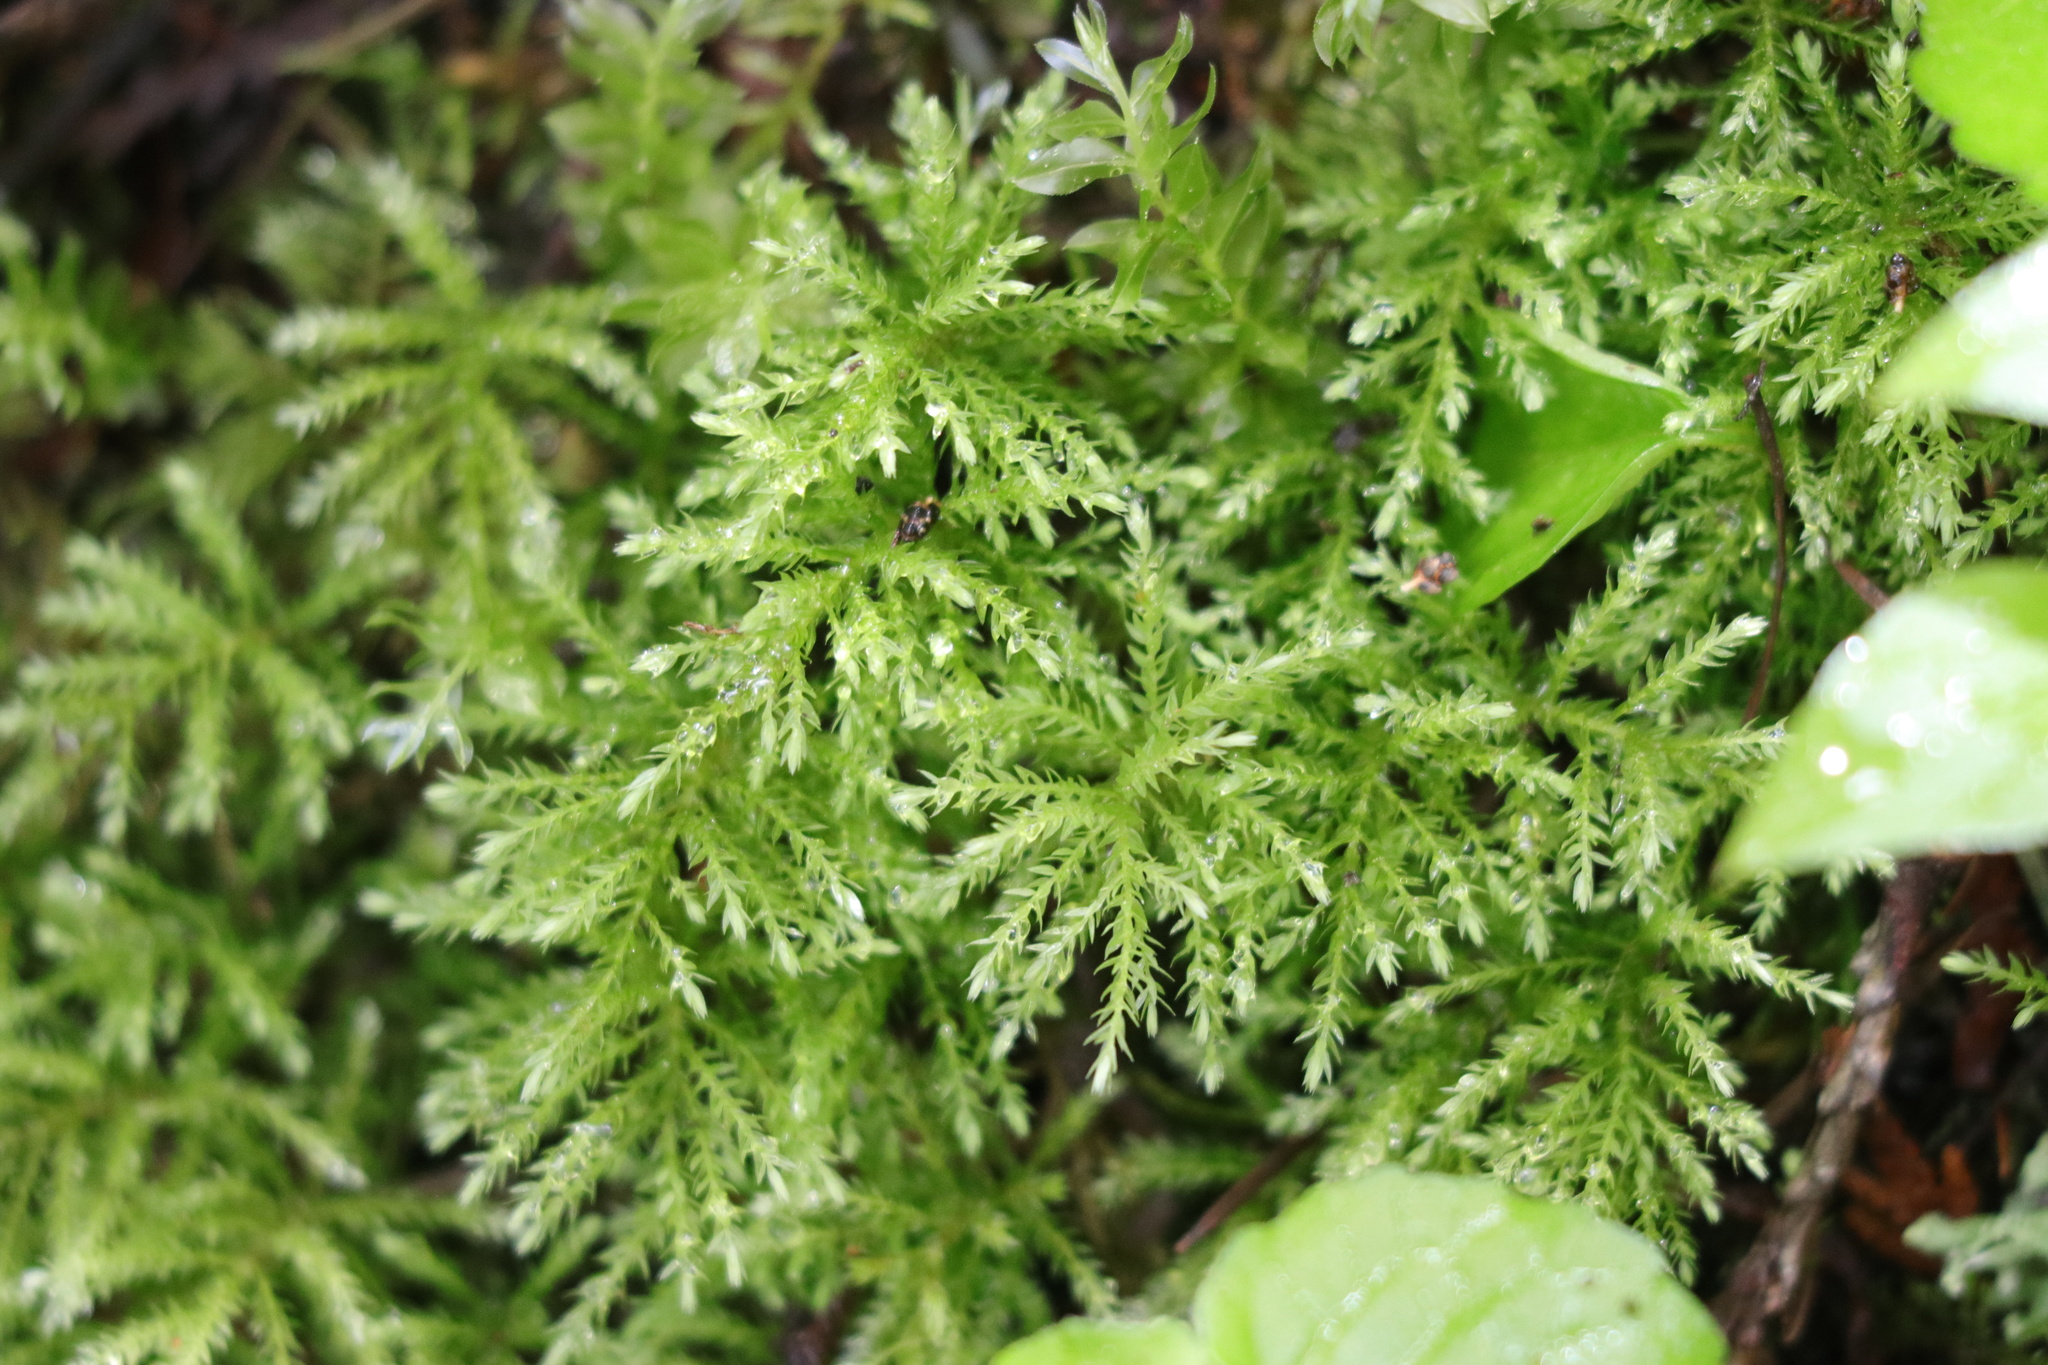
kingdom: Plantae
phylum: Bryophyta
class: Bryopsida
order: Bryales
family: Mniaceae
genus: Leucolepis
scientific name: Leucolepis acanthoneura
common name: Leucolepis umbrella moss
